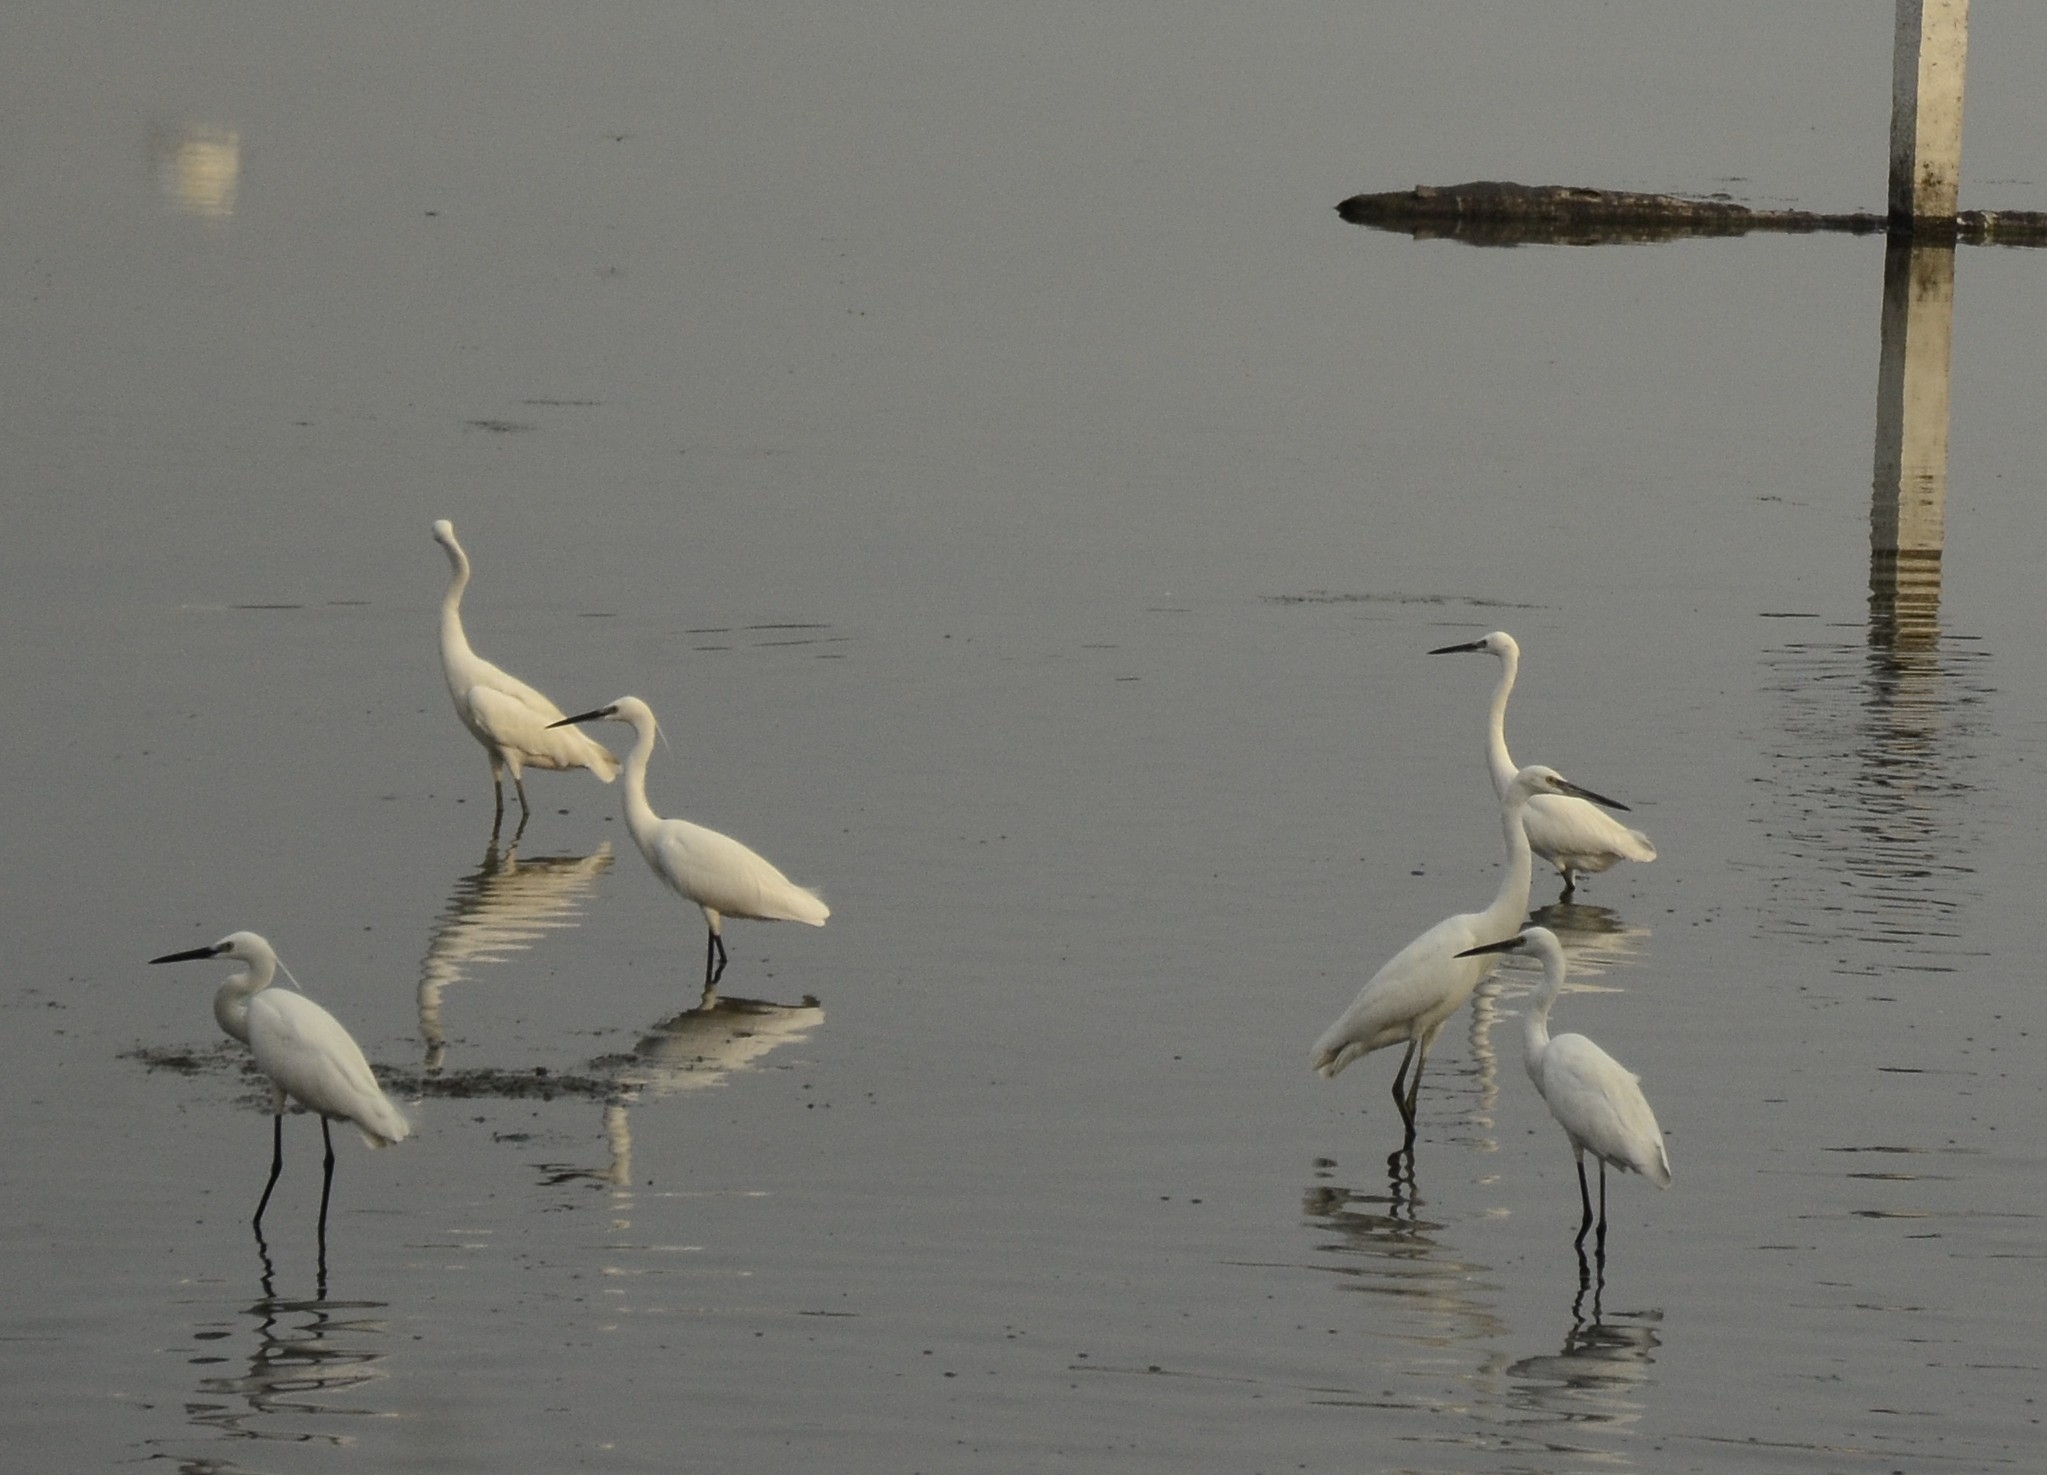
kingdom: Animalia
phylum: Chordata
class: Aves
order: Pelecaniformes
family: Ardeidae
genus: Egretta
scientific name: Egretta garzetta
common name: Little egret
